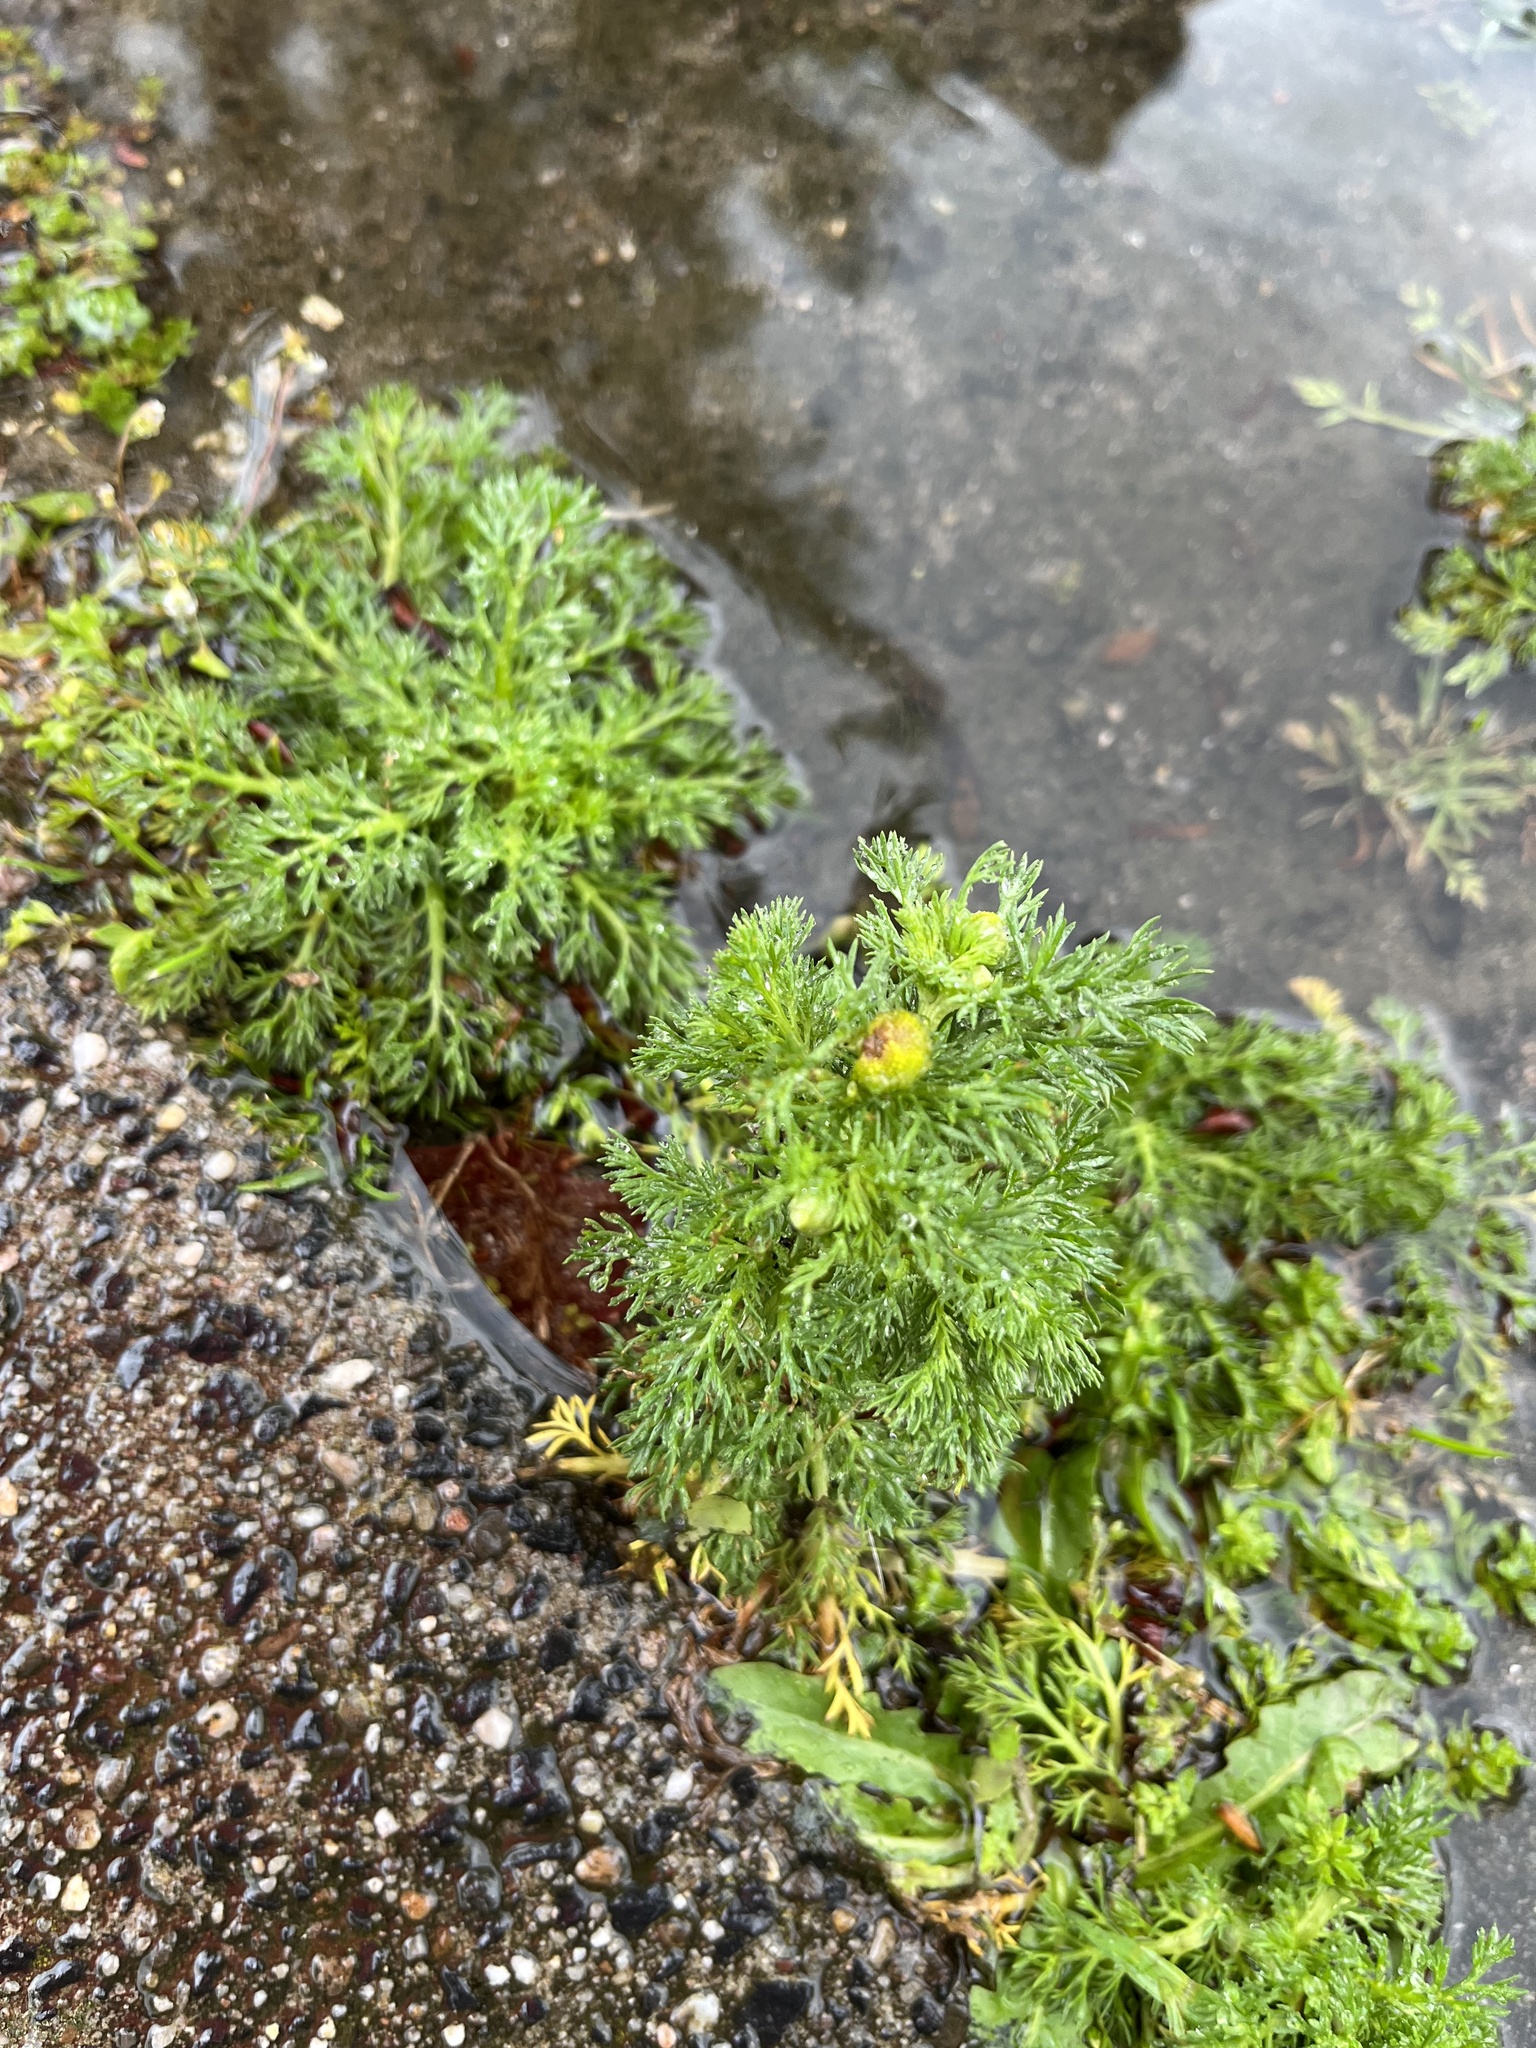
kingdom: Plantae
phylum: Tracheophyta
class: Magnoliopsida
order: Asterales
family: Asteraceae
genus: Matricaria
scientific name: Matricaria discoidea
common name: Disc mayweed
